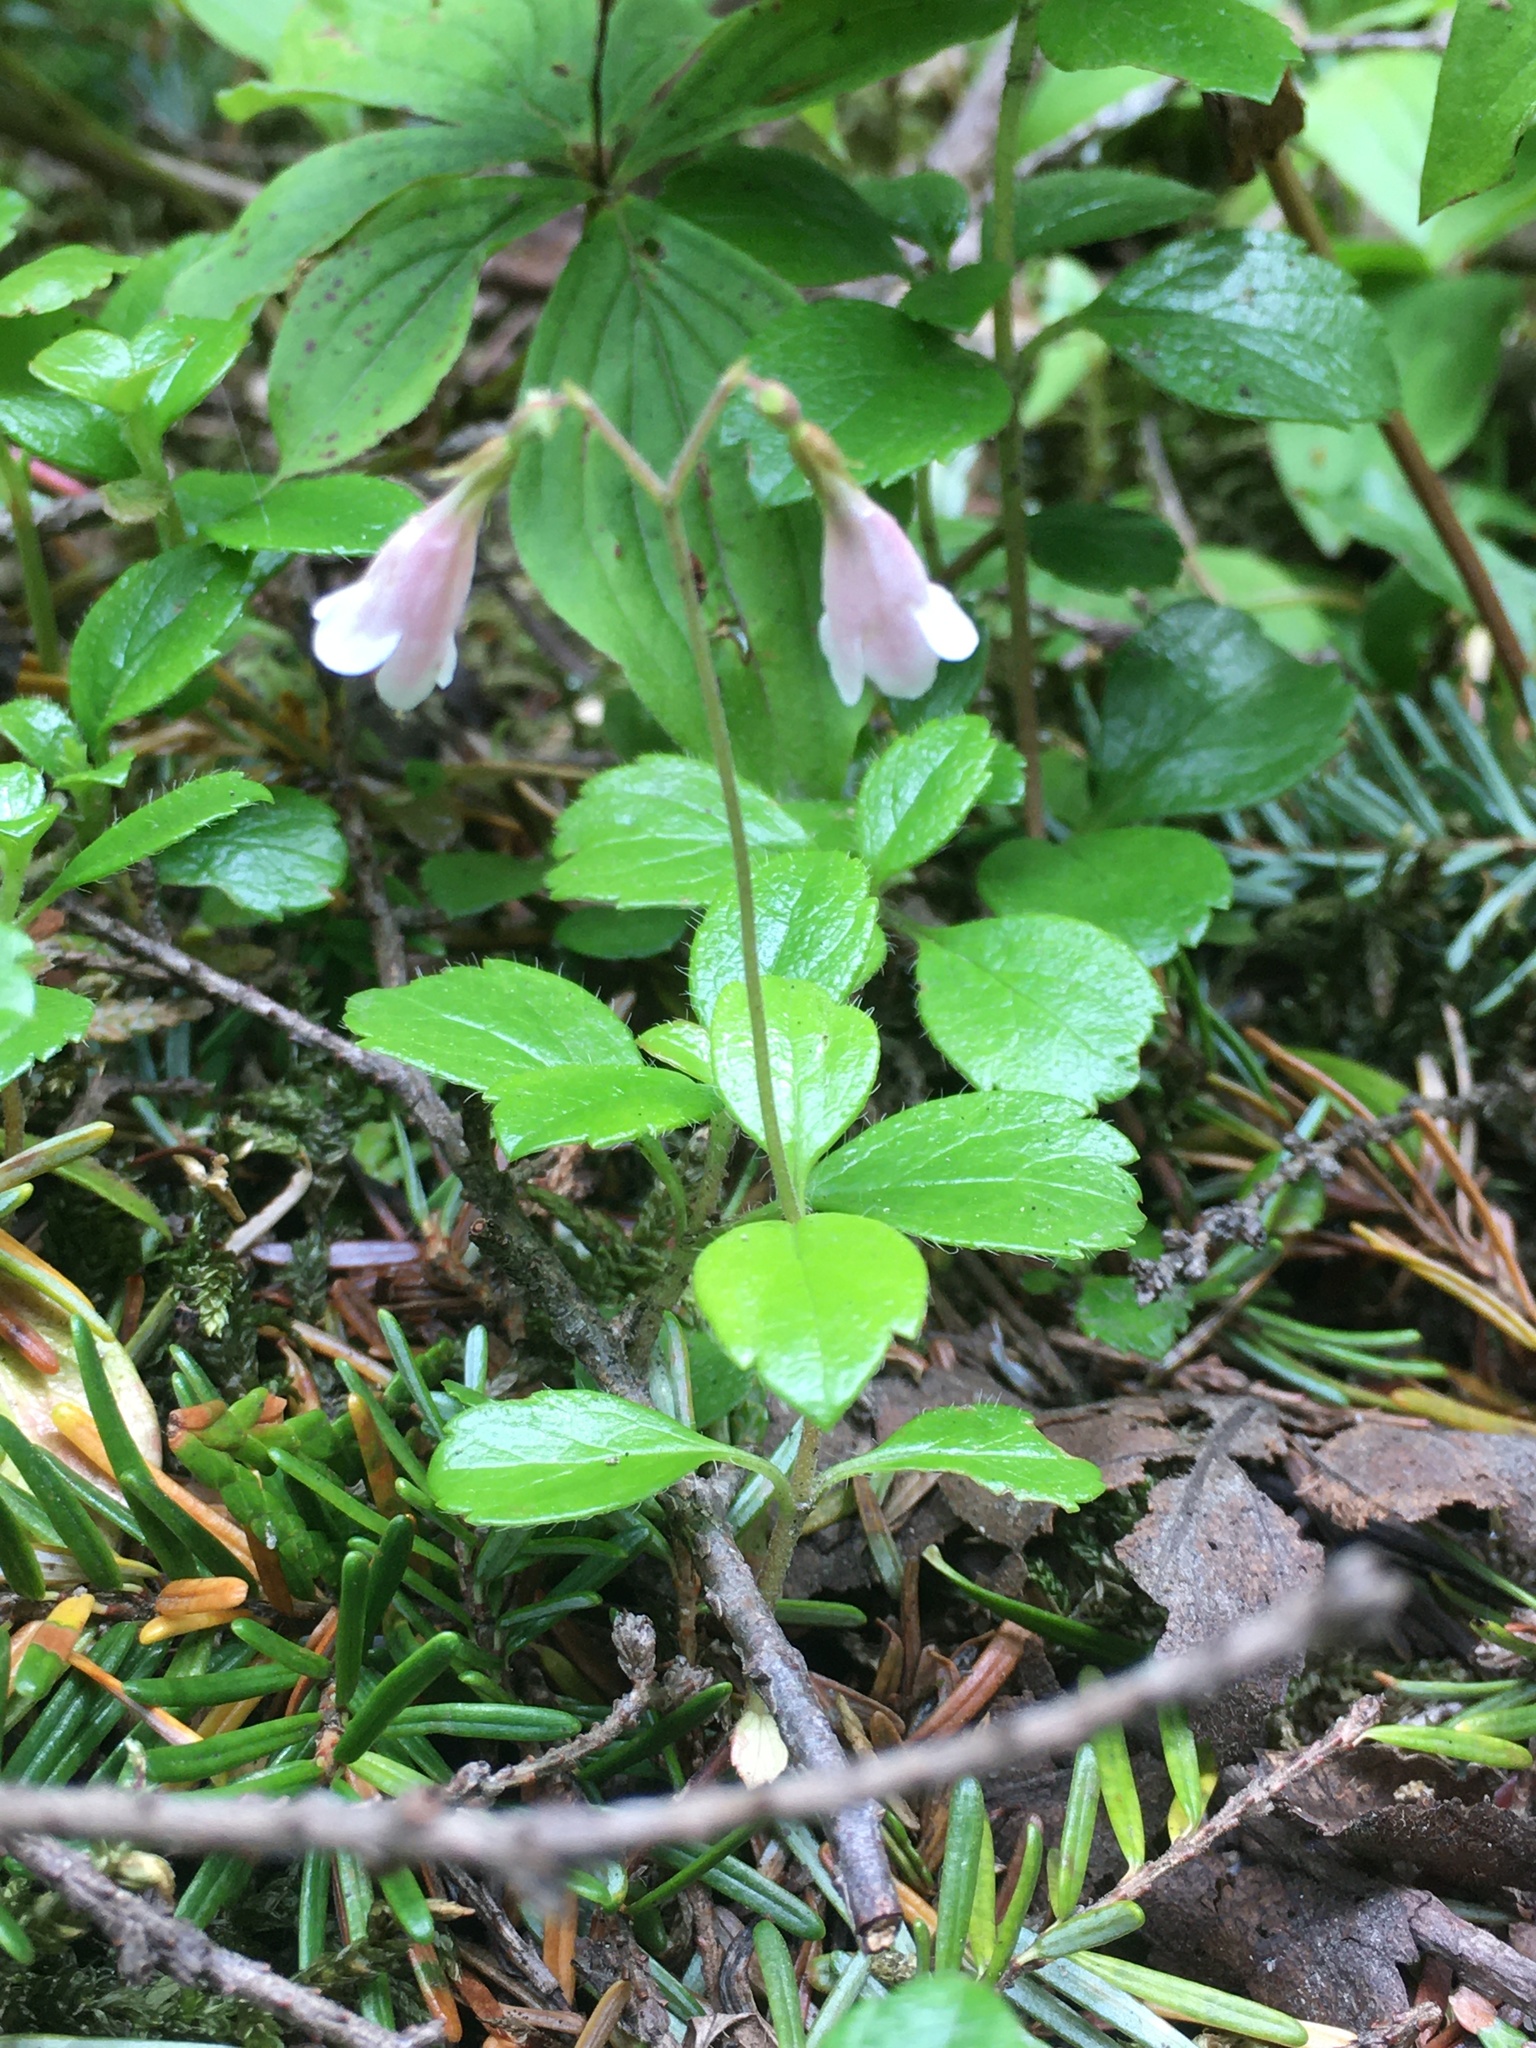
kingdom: Plantae
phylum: Tracheophyta
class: Magnoliopsida
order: Dipsacales
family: Caprifoliaceae
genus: Linnaea
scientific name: Linnaea borealis
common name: Twinflower
